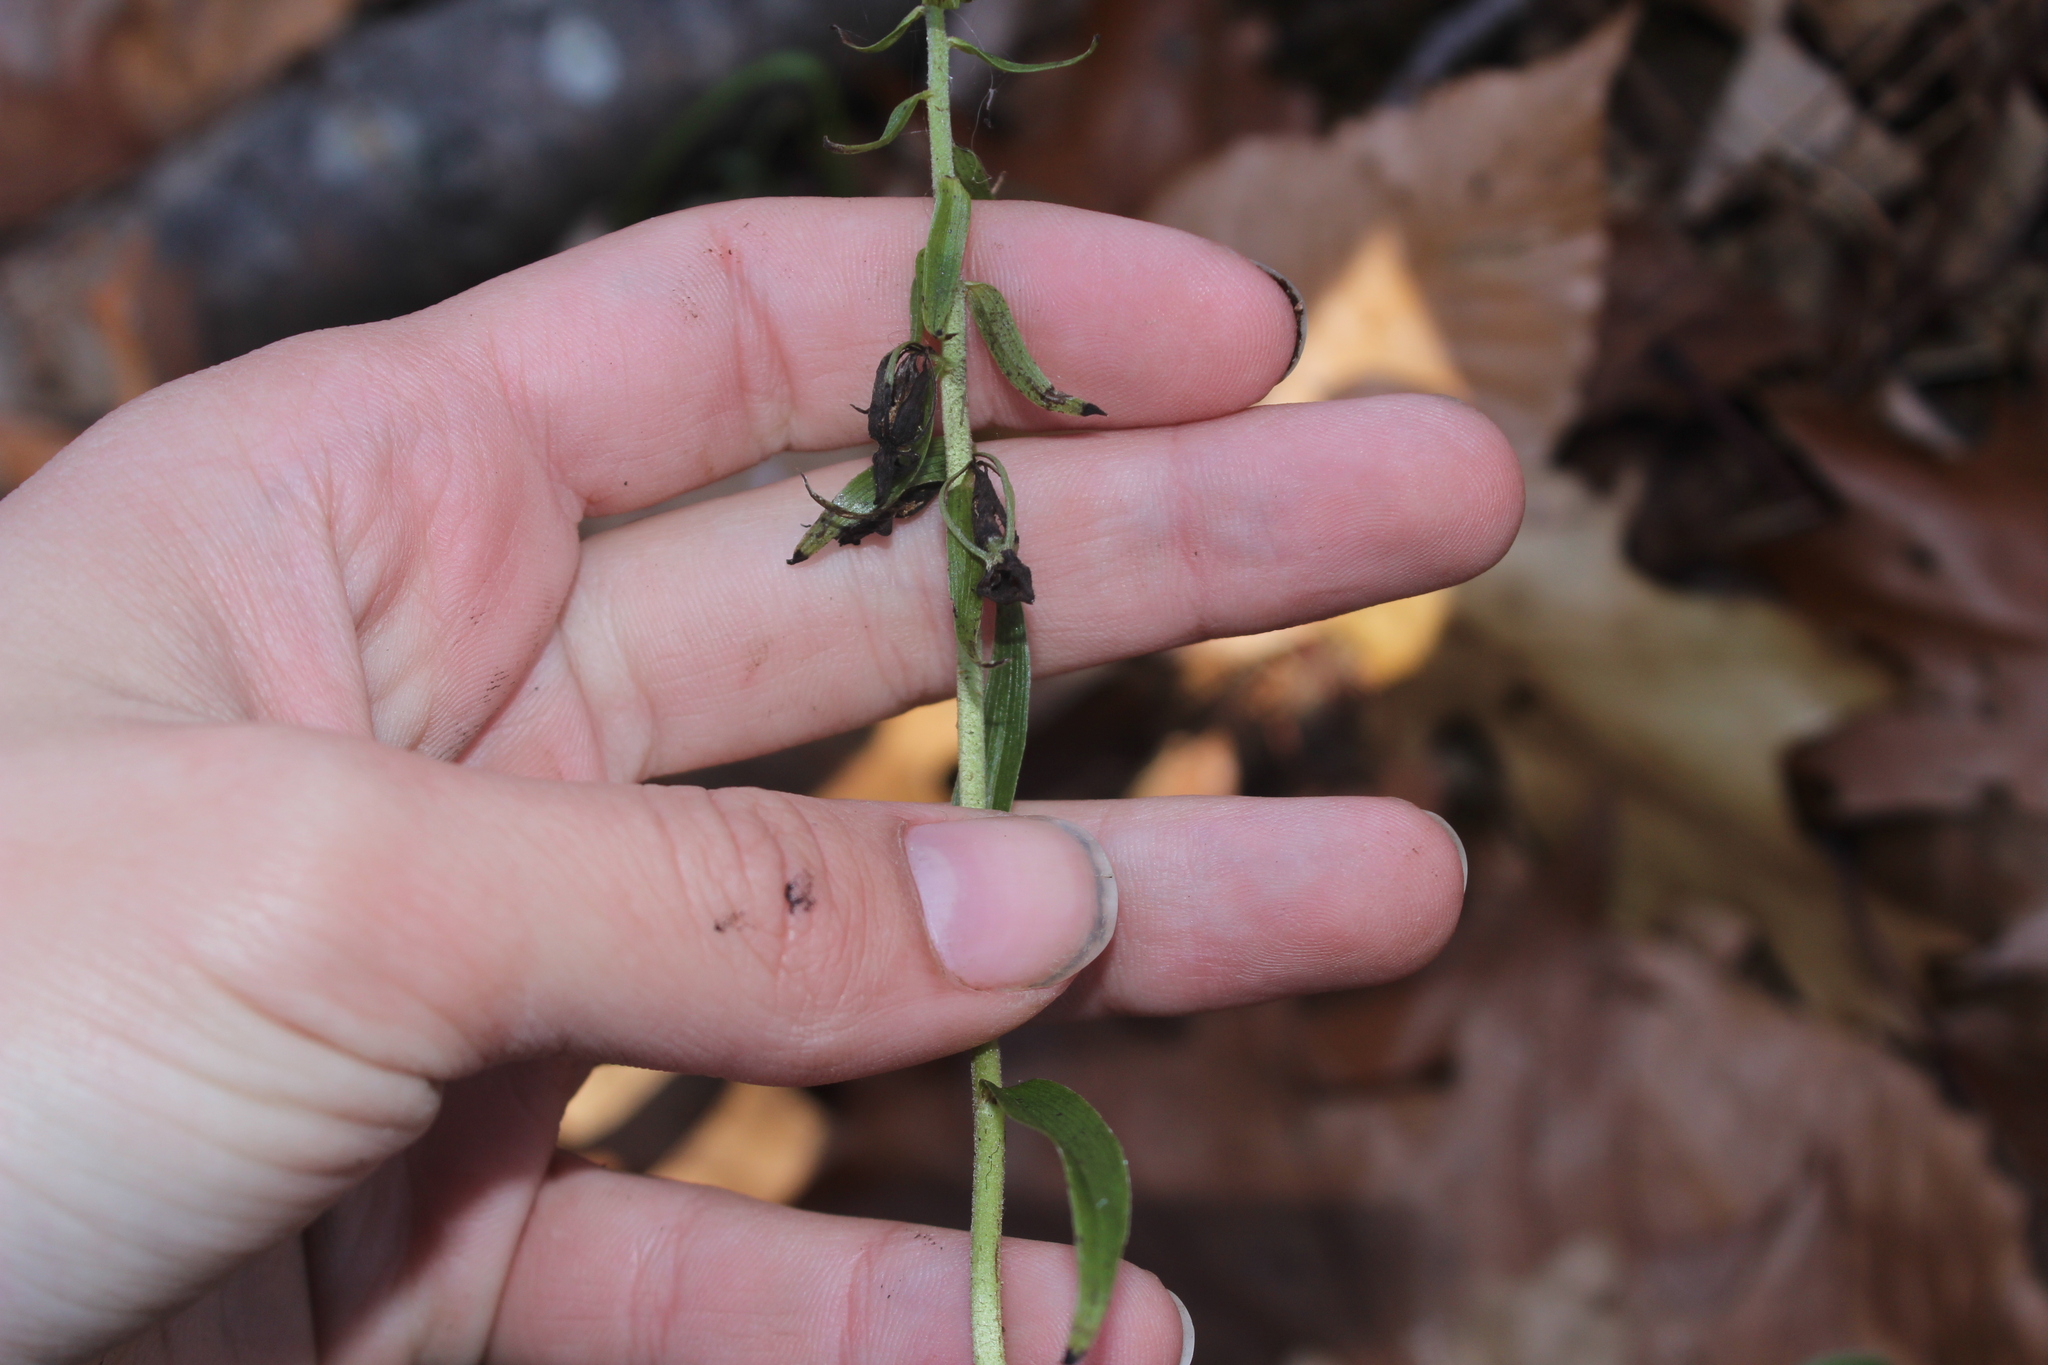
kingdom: Plantae
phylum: Tracheophyta
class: Liliopsida
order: Asparagales
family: Orchidaceae
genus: Epipactis
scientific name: Epipactis helleborine
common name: Broad-leaved helleborine
